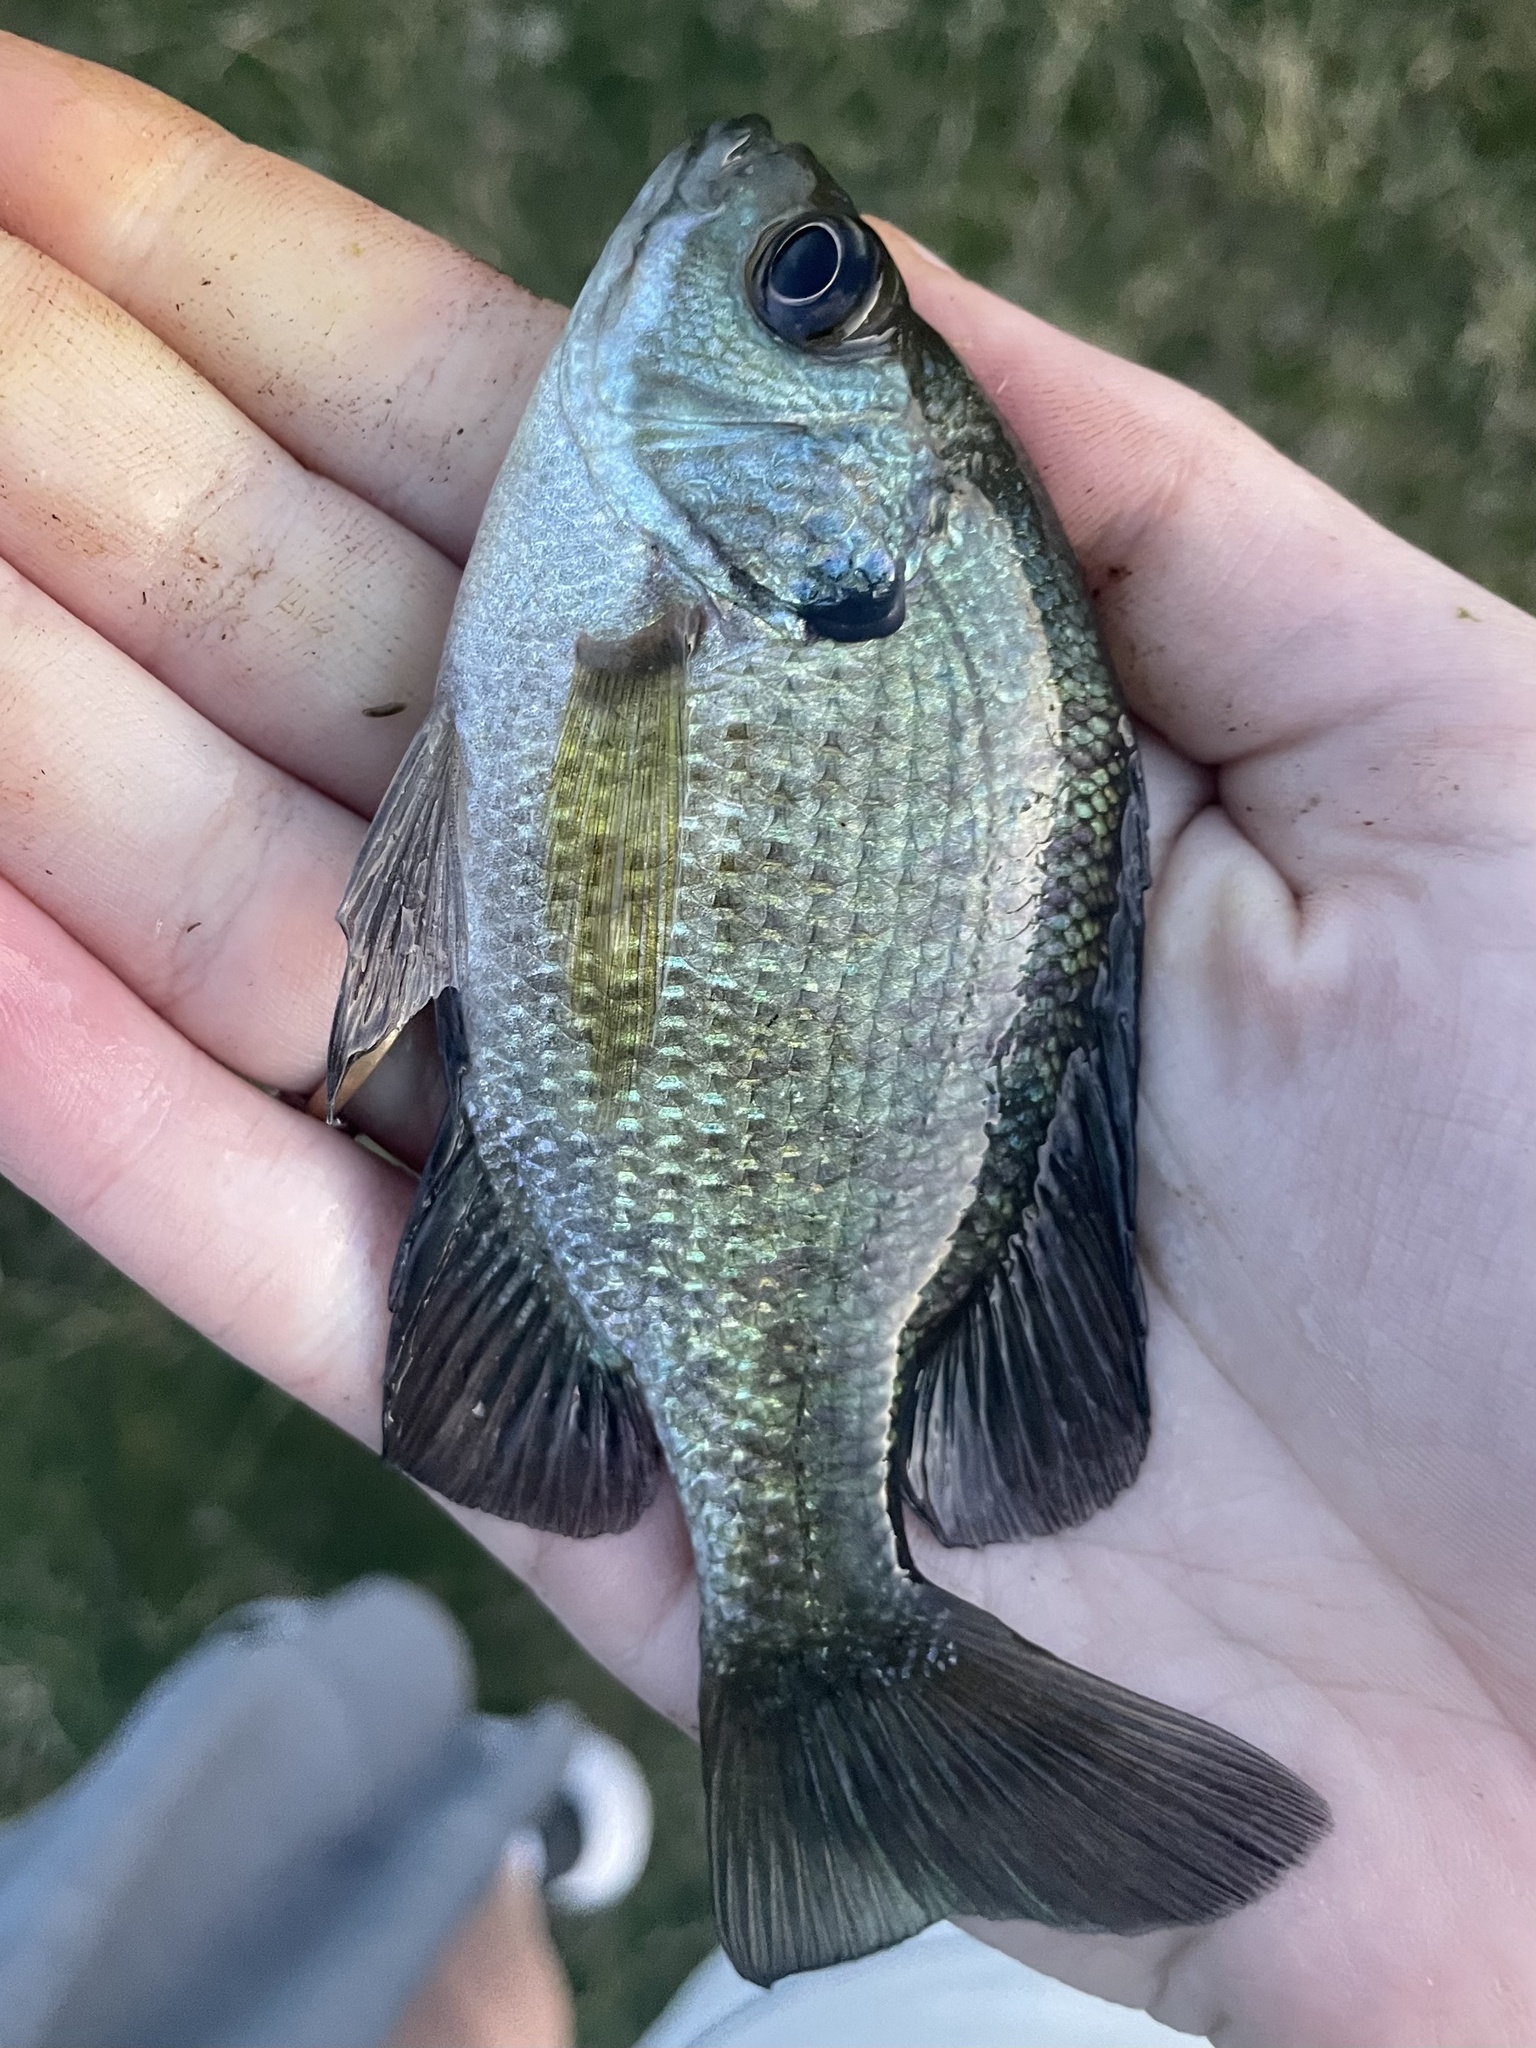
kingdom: Animalia
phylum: Chordata
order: Perciformes
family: Centrarchidae
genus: Lepomis
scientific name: Lepomis macrochirus
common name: Bluegill
